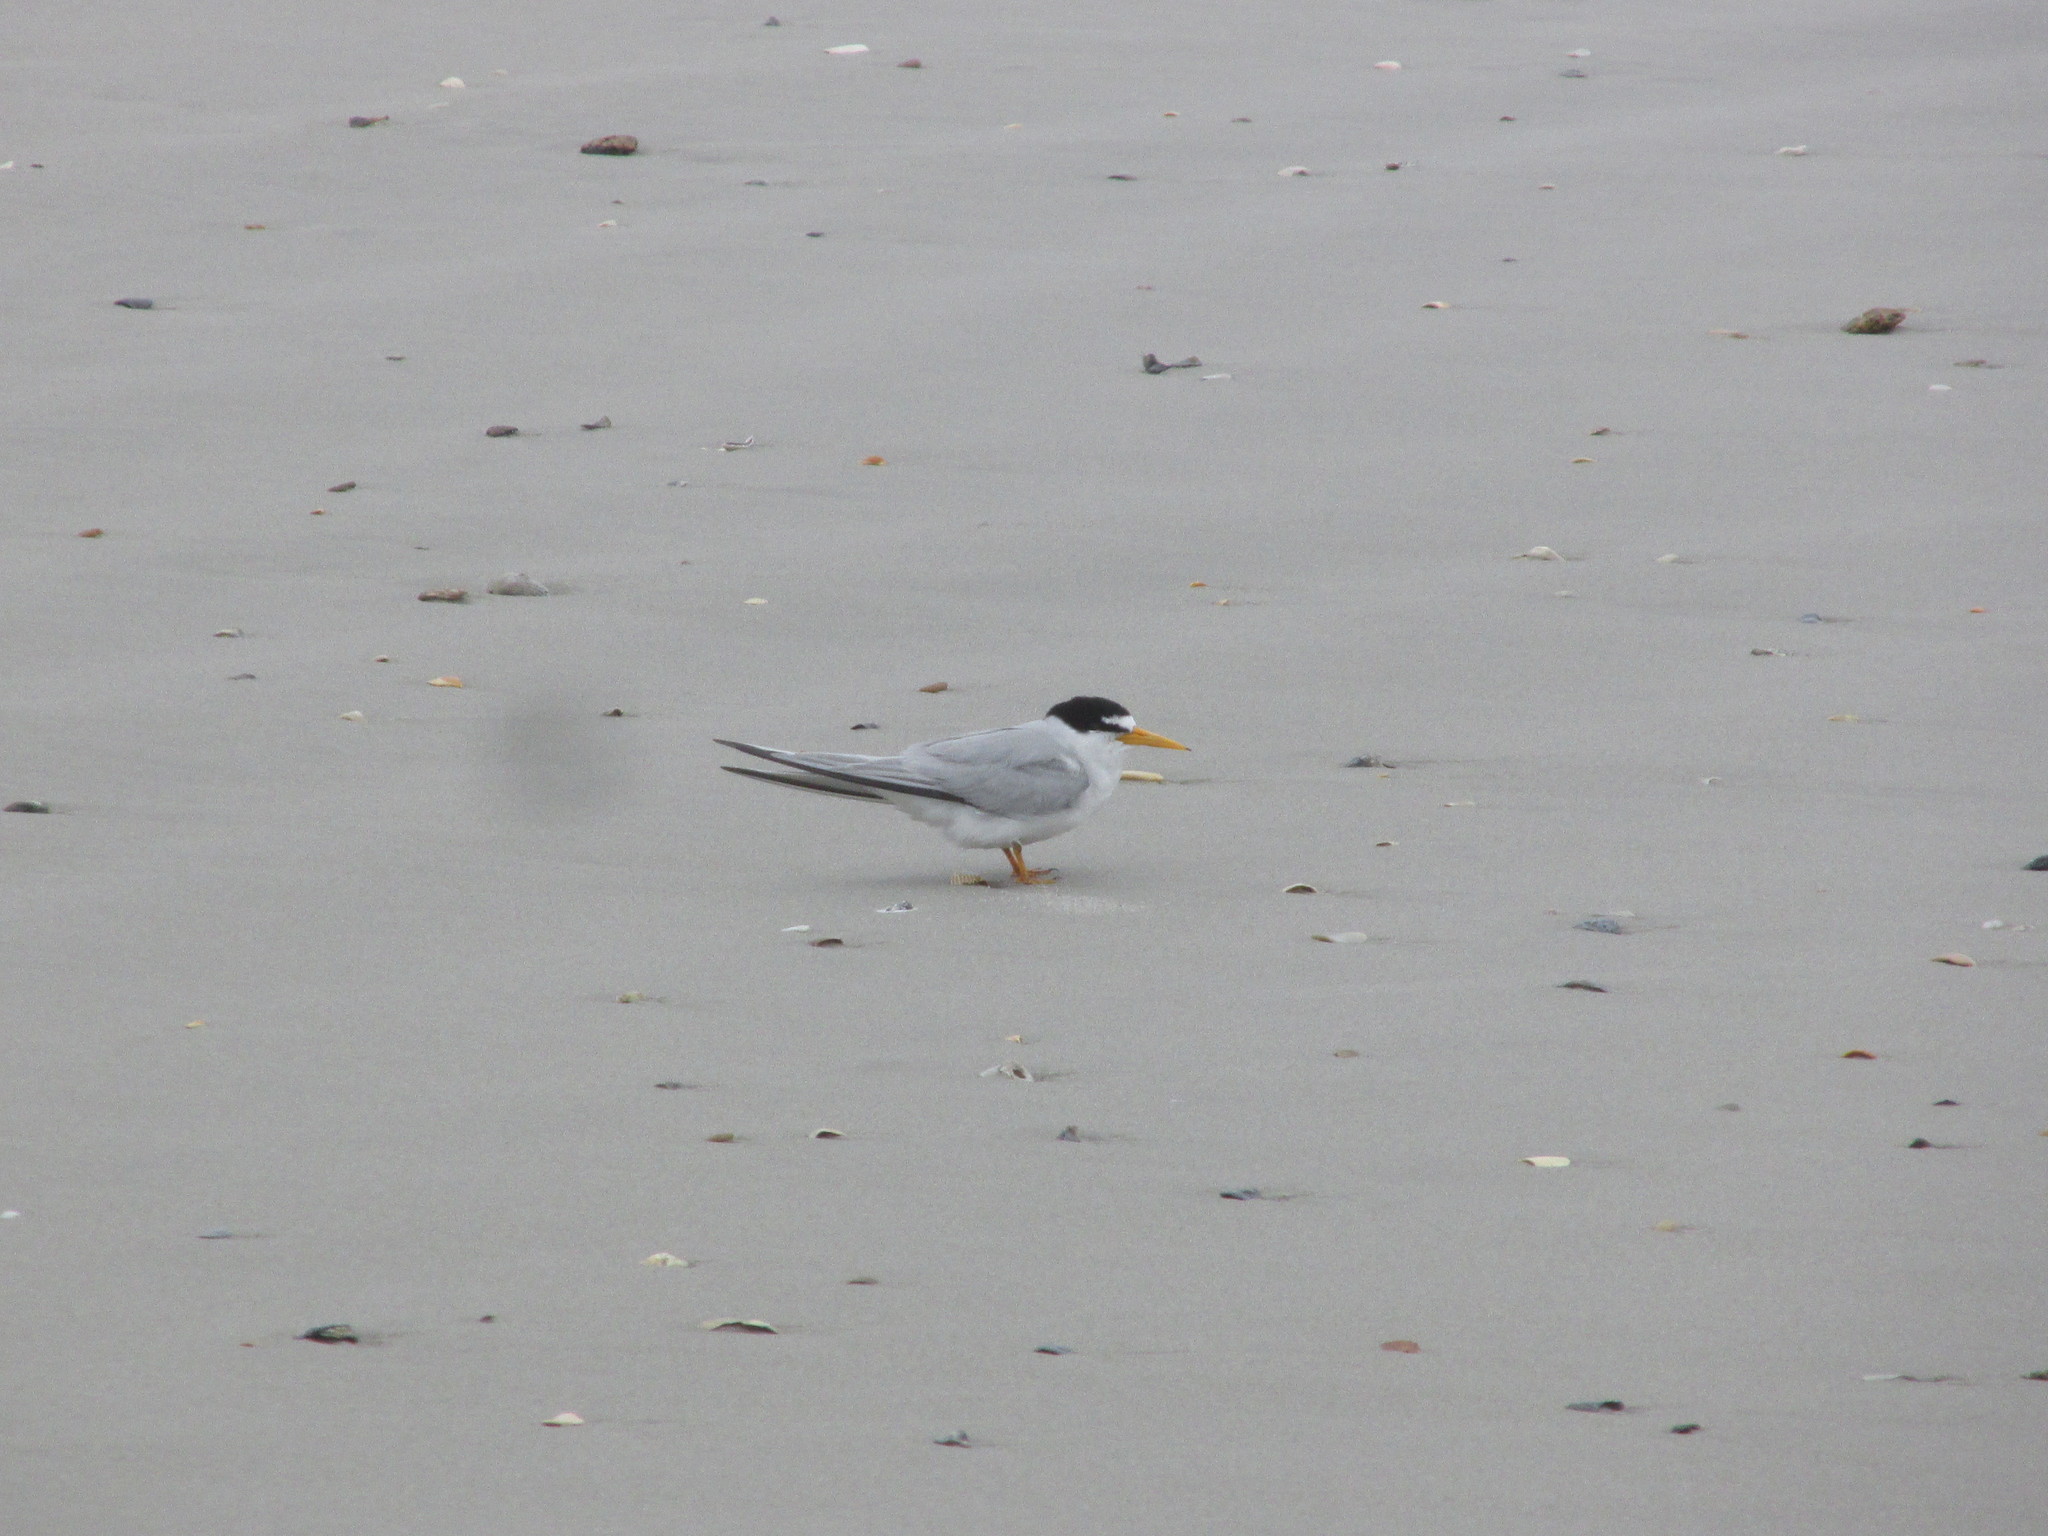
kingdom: Animalia
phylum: Chordata
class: Aves
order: Charadriiformes
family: Laridae
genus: Sternula
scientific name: Sternula antillarum
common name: Least tern
